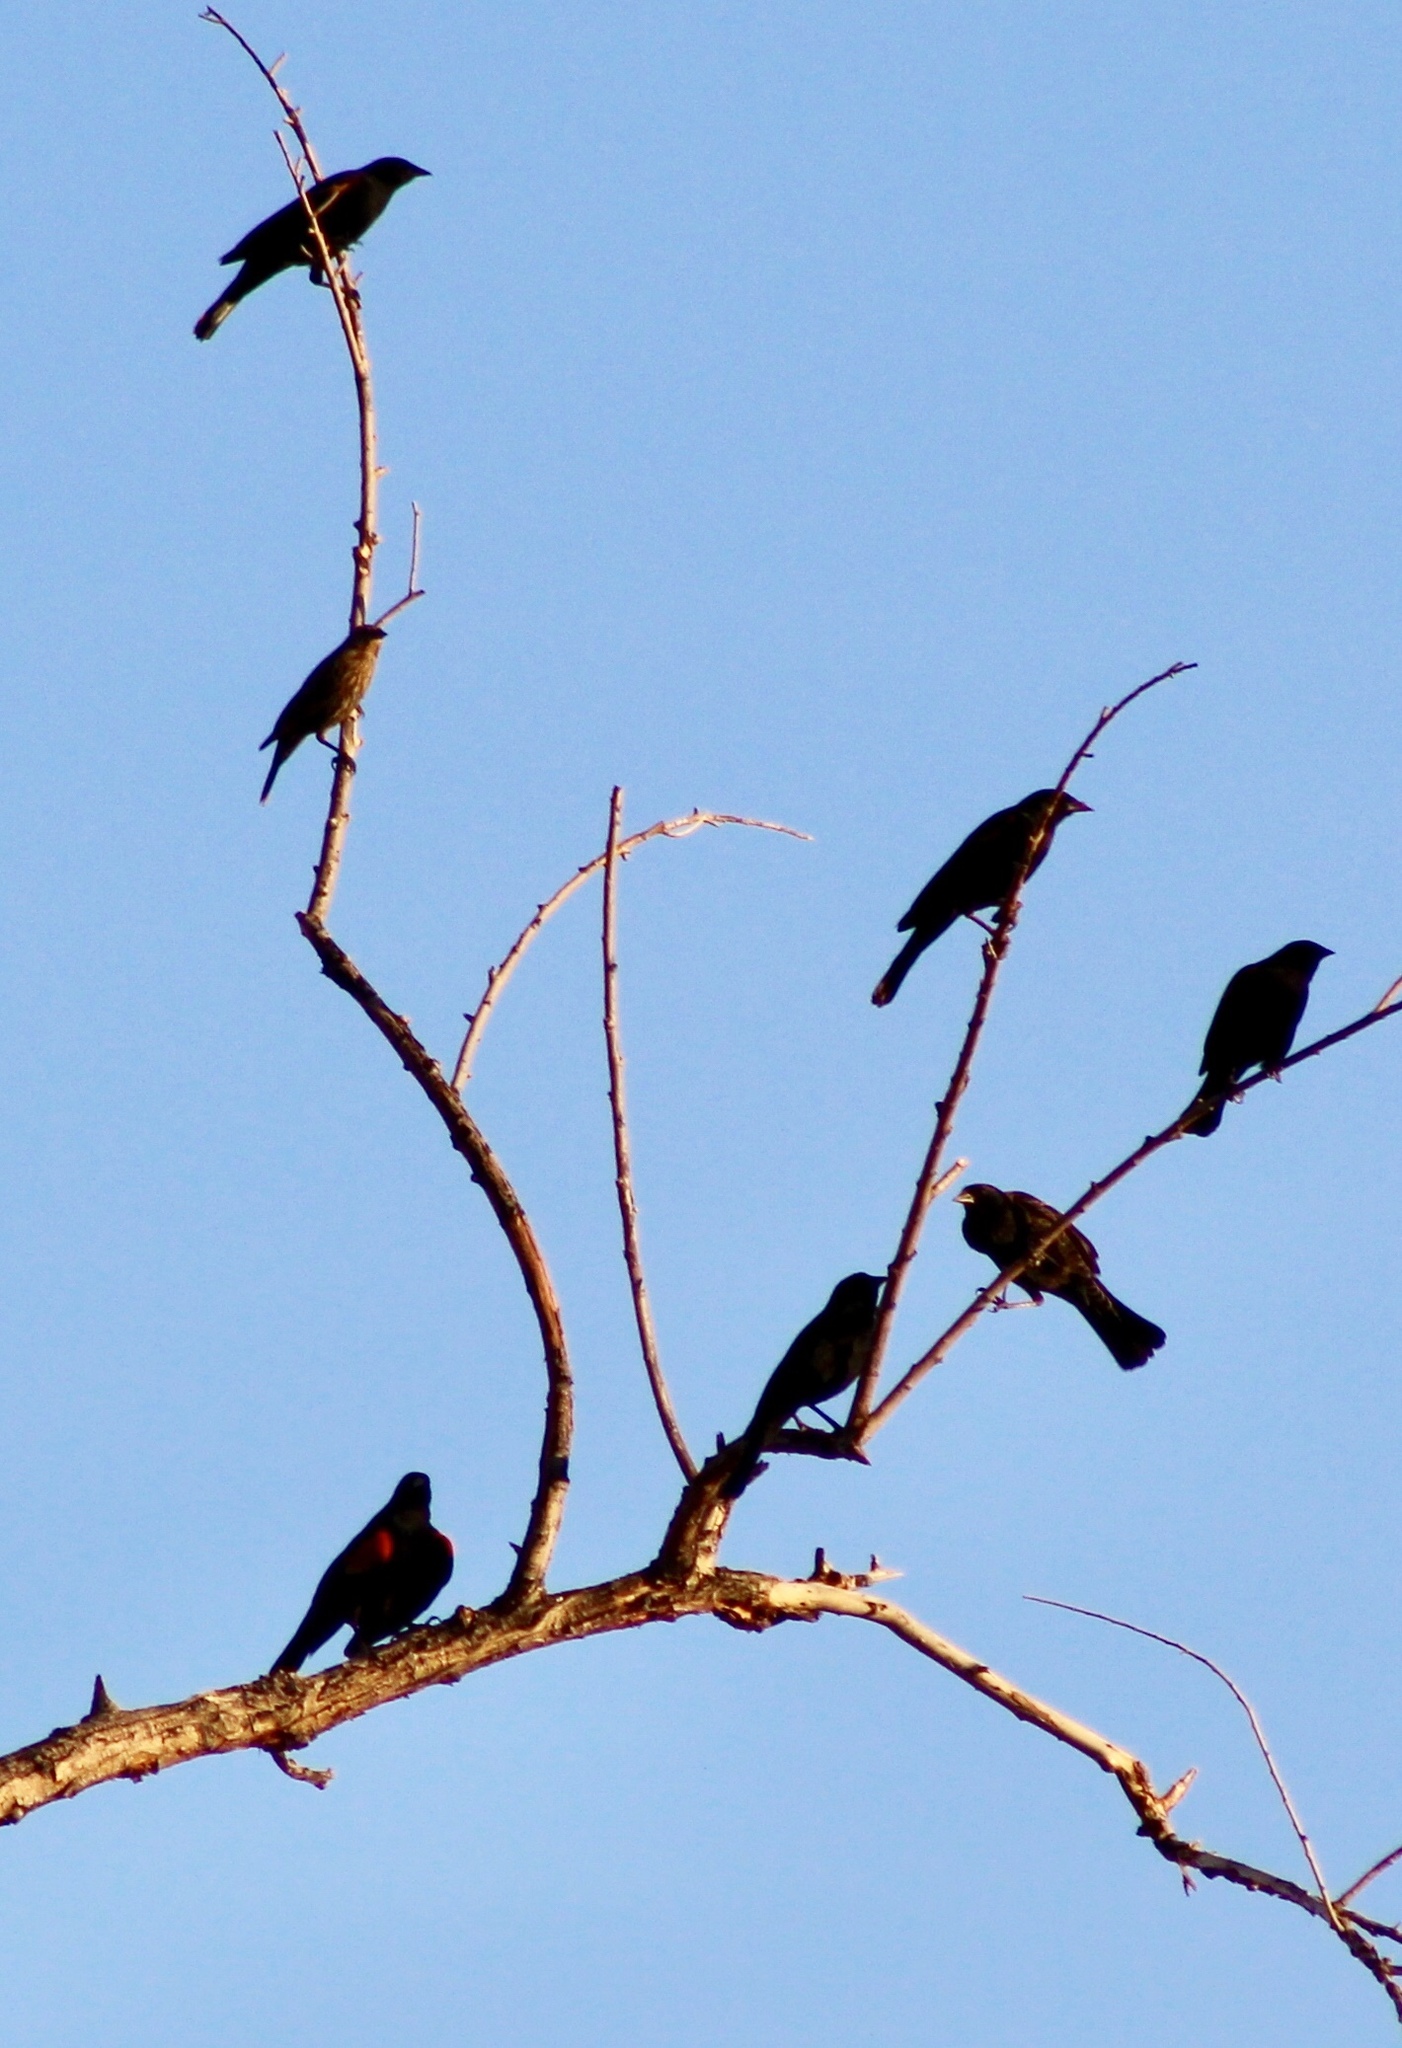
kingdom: Animalia
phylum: Chordata
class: Aves
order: Passeriformes
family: Icteridae
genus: Agelaius
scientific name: Agelaius phoeniceus
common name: Red-winged blackbird
